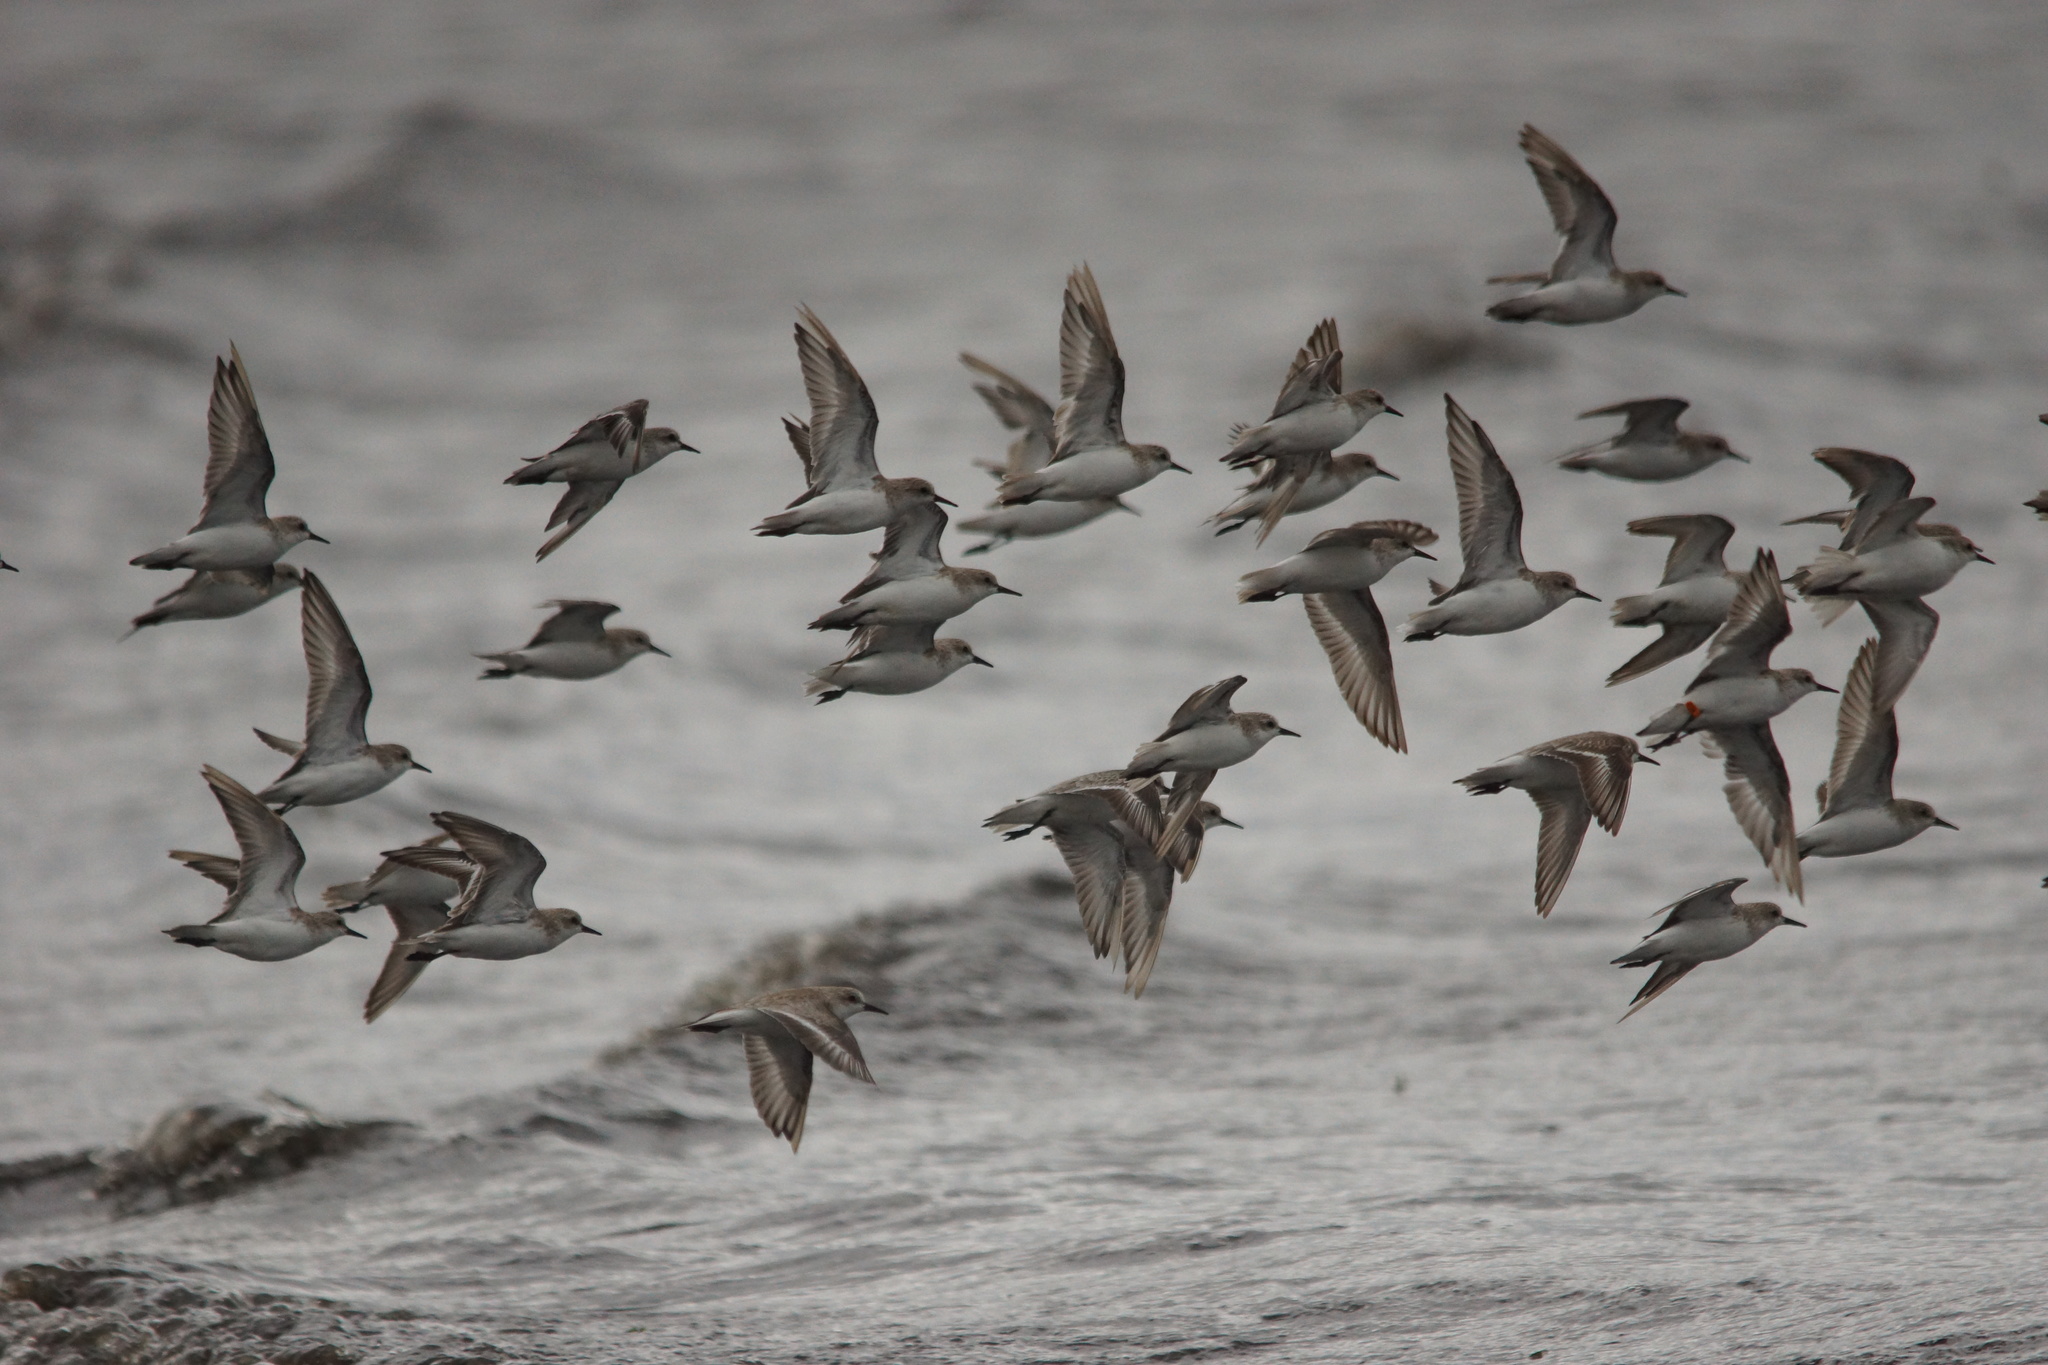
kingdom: Animalia
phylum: Chordata
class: Aves
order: Charadriiformes
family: Scolopacidae
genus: Calidris
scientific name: Calidris ruficollis
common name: Red-necked stint
